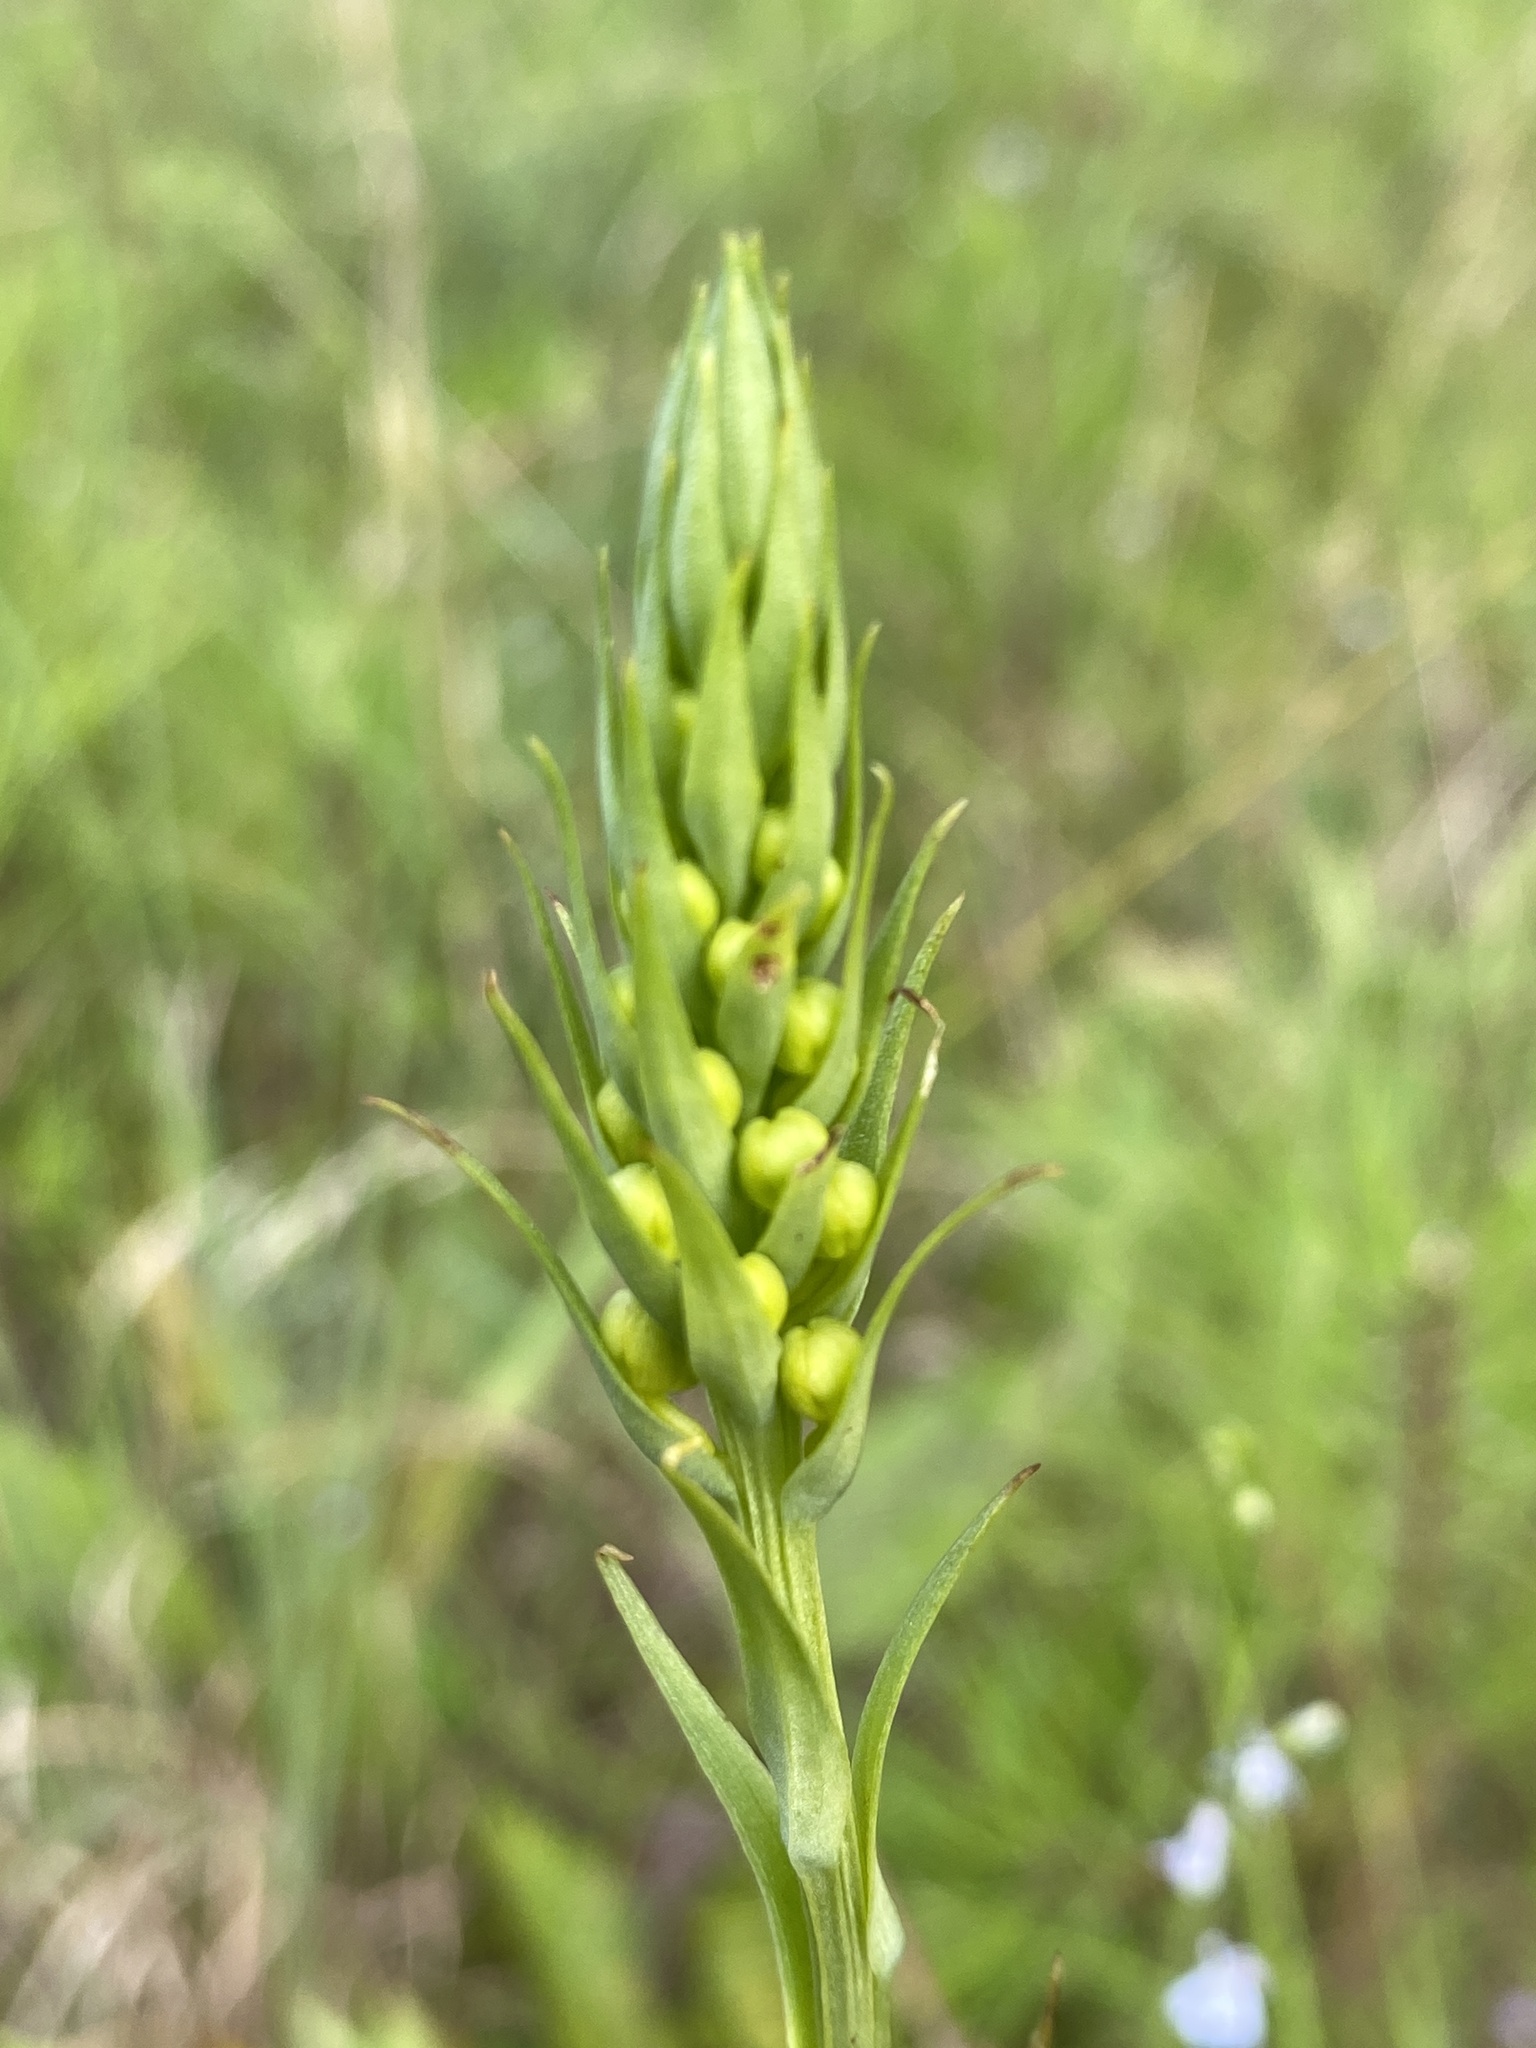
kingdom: Plantae
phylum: Tracheophyta
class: Liliopsida
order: Asparagales
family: Orchidaceae
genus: Platanthera
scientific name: Platanthera ciliaris
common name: Yellow fringed orchid
